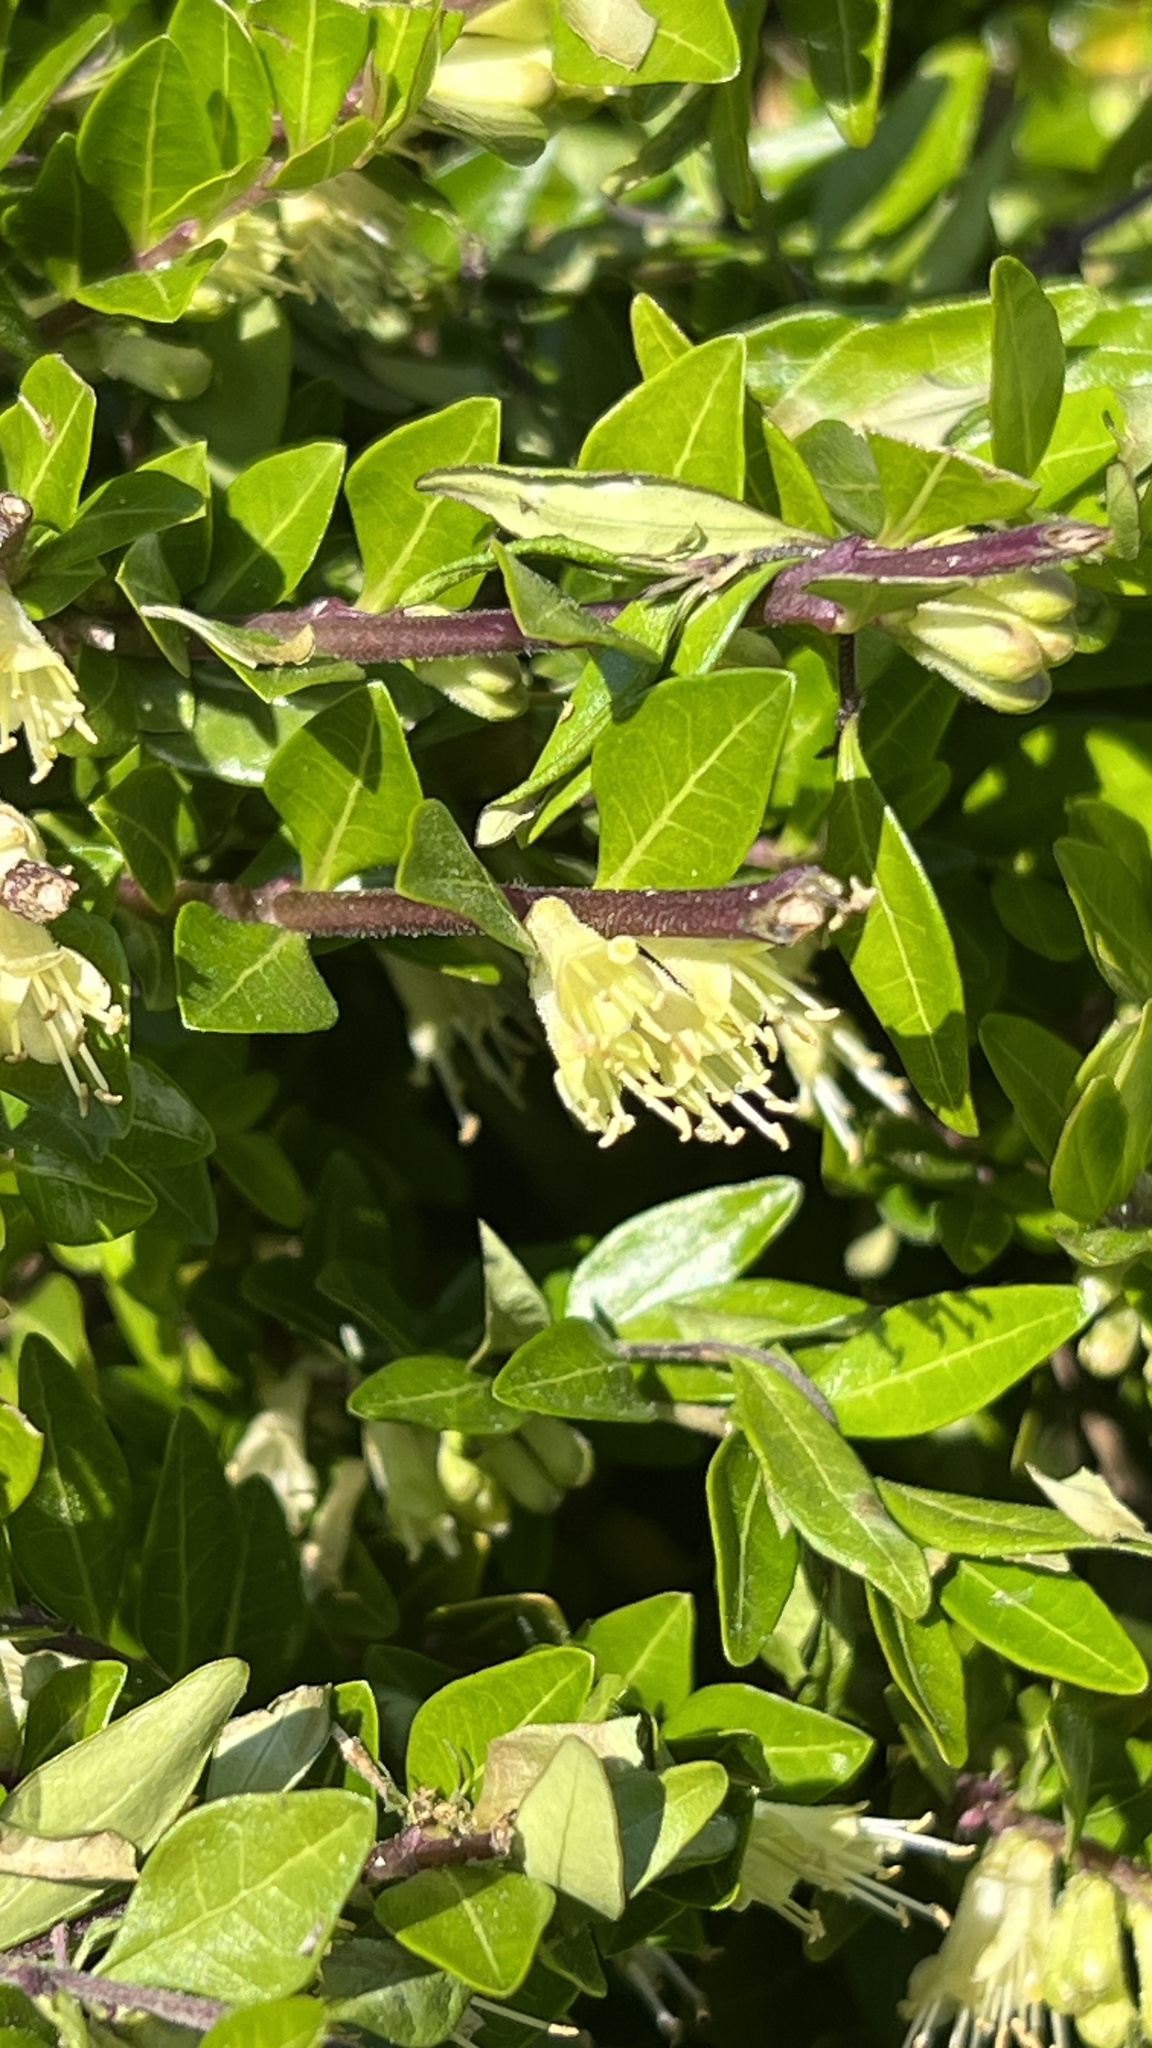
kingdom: Plantae
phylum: Tracheophyta
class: Magnoliopsida
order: Dipsacales
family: Caprifoliaceae
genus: Lonicera
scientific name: Lonicera ligustrina
